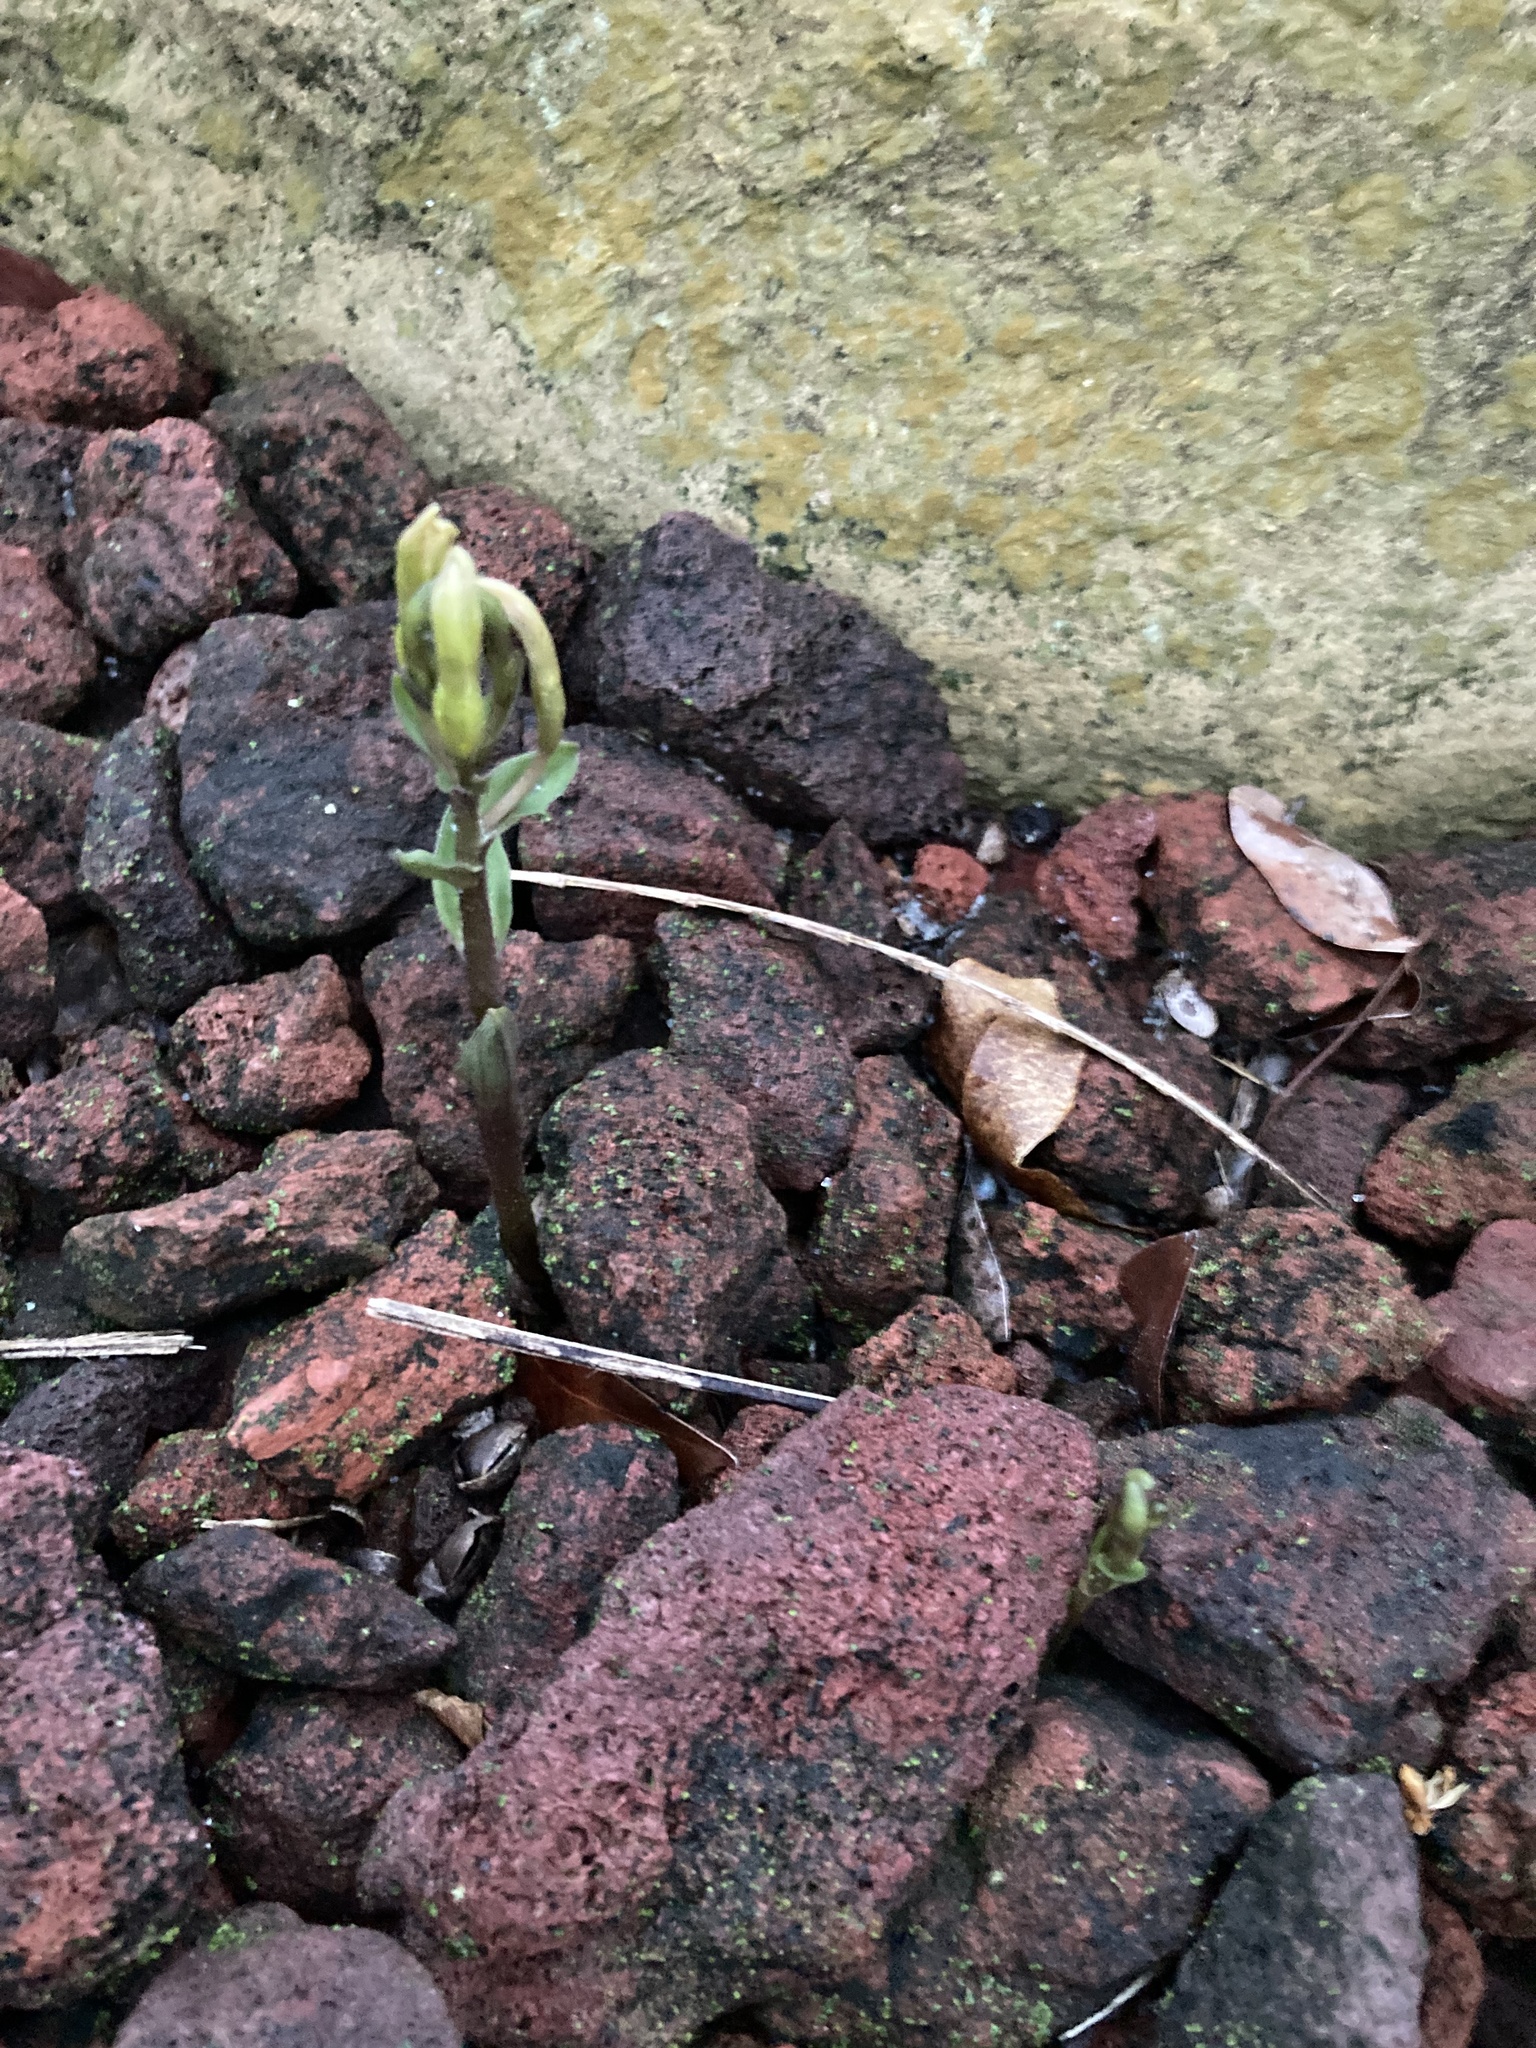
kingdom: Plantae
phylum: Tracheophyta
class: Liliopsida
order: Asparagales
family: Orchidaceae
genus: Triphora
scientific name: Triphora gentianoides
